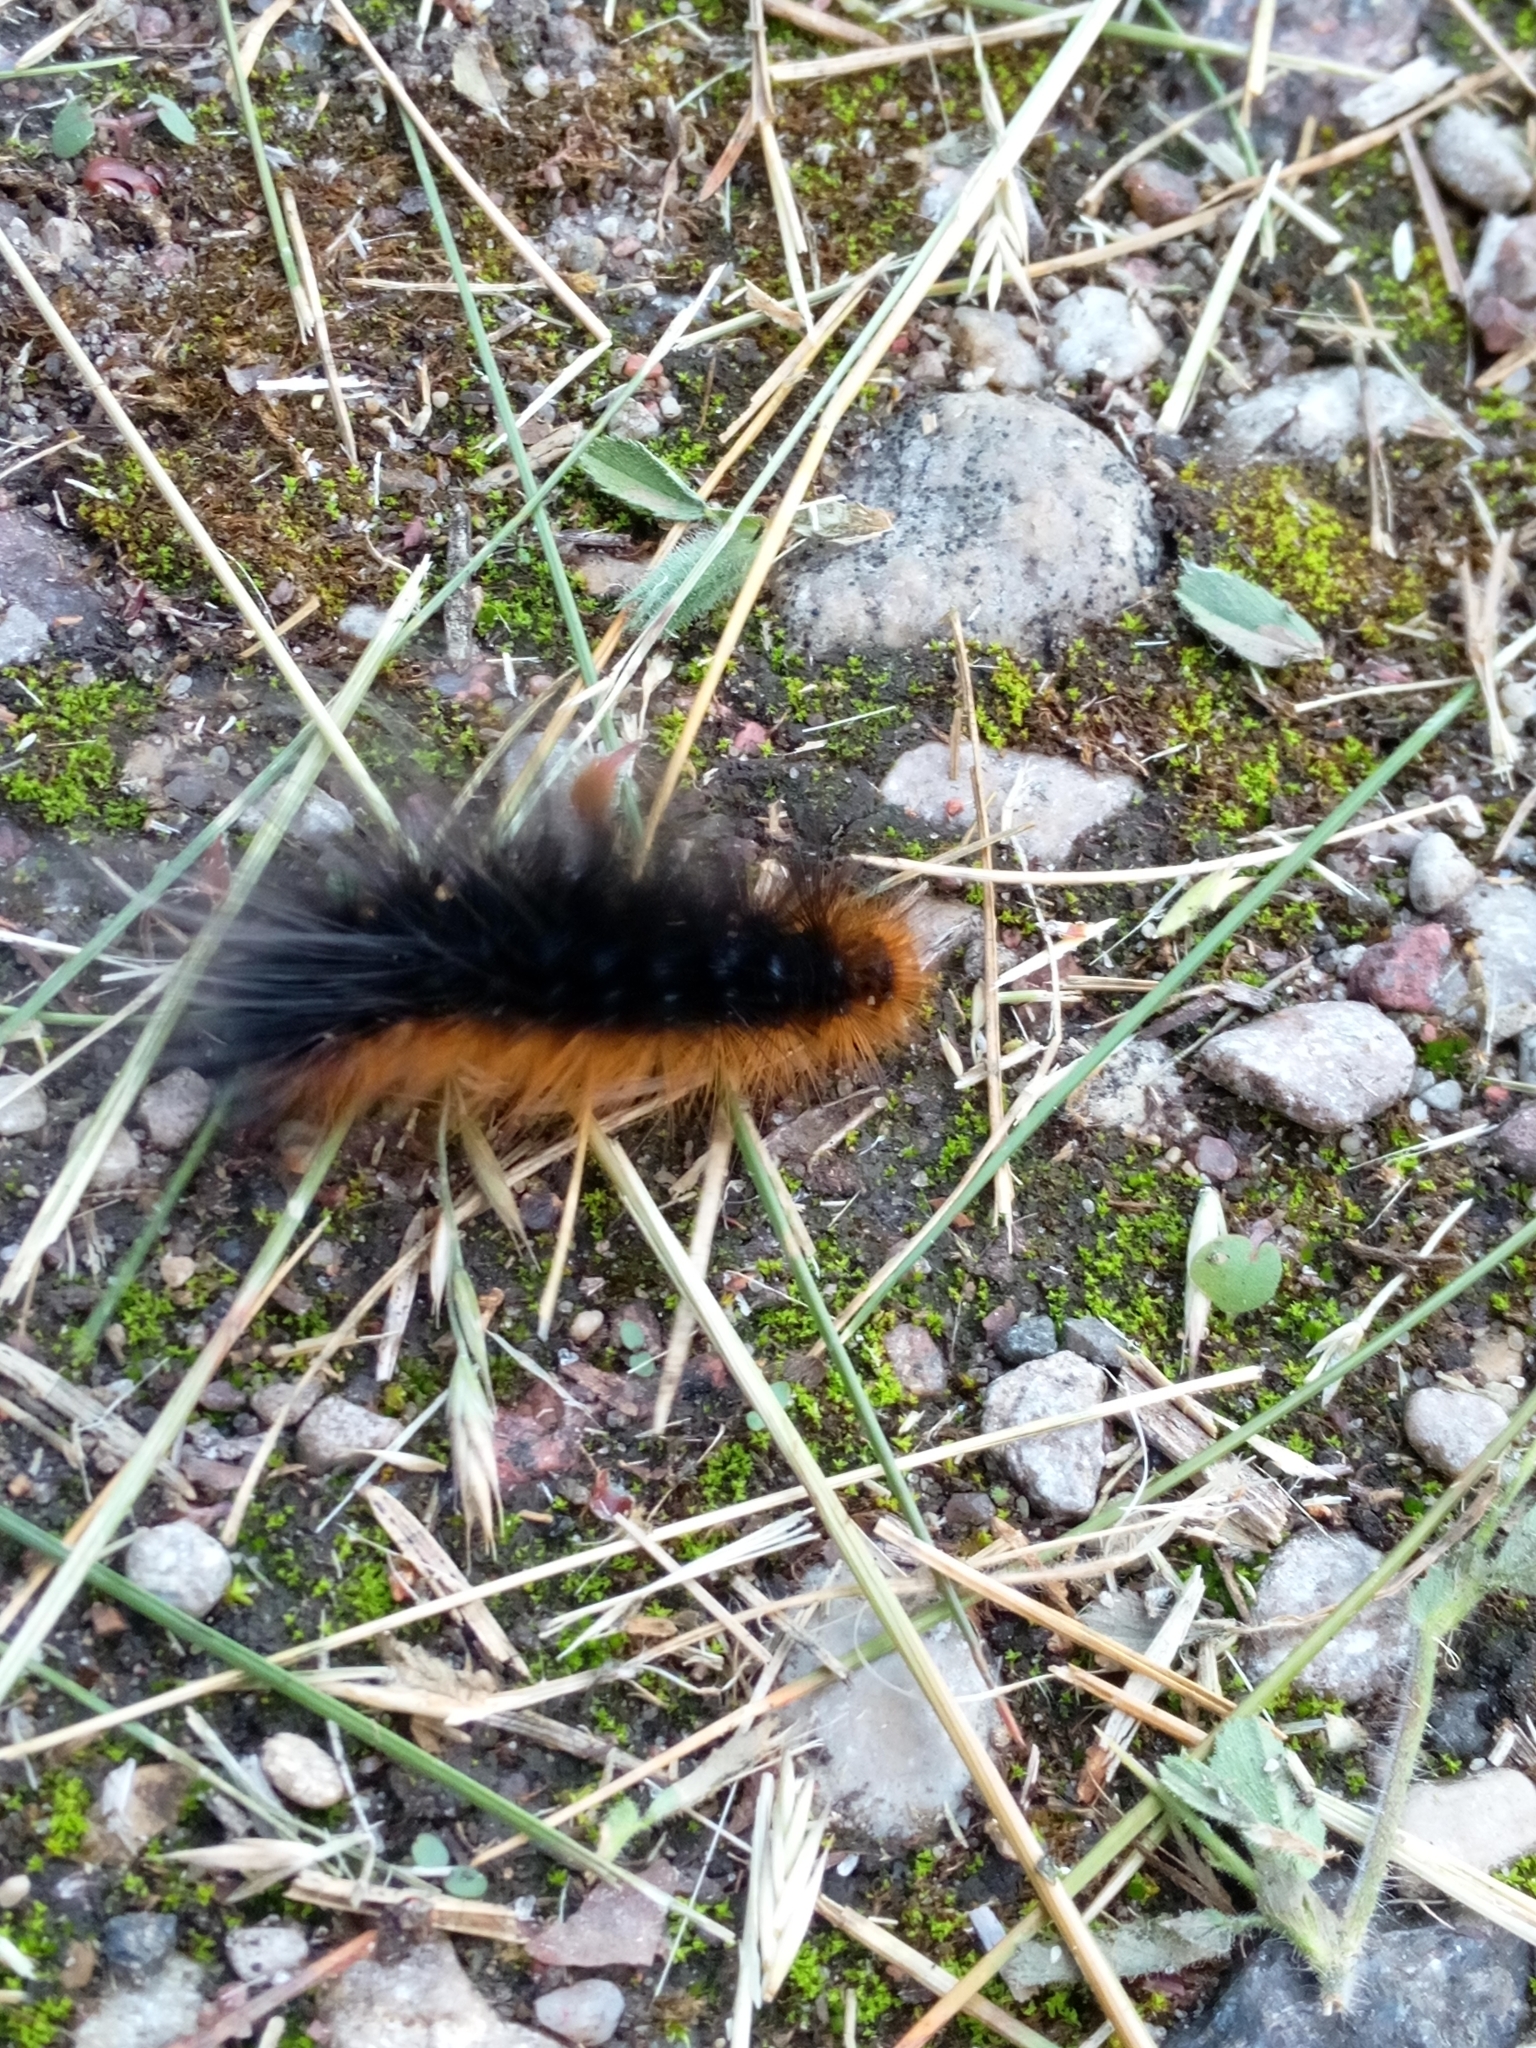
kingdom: Animalia
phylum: Arthropoda
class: Insecta
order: Lepidoptera
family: Erebidae
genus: Arctia
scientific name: Arctia caja
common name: Garden tiger
